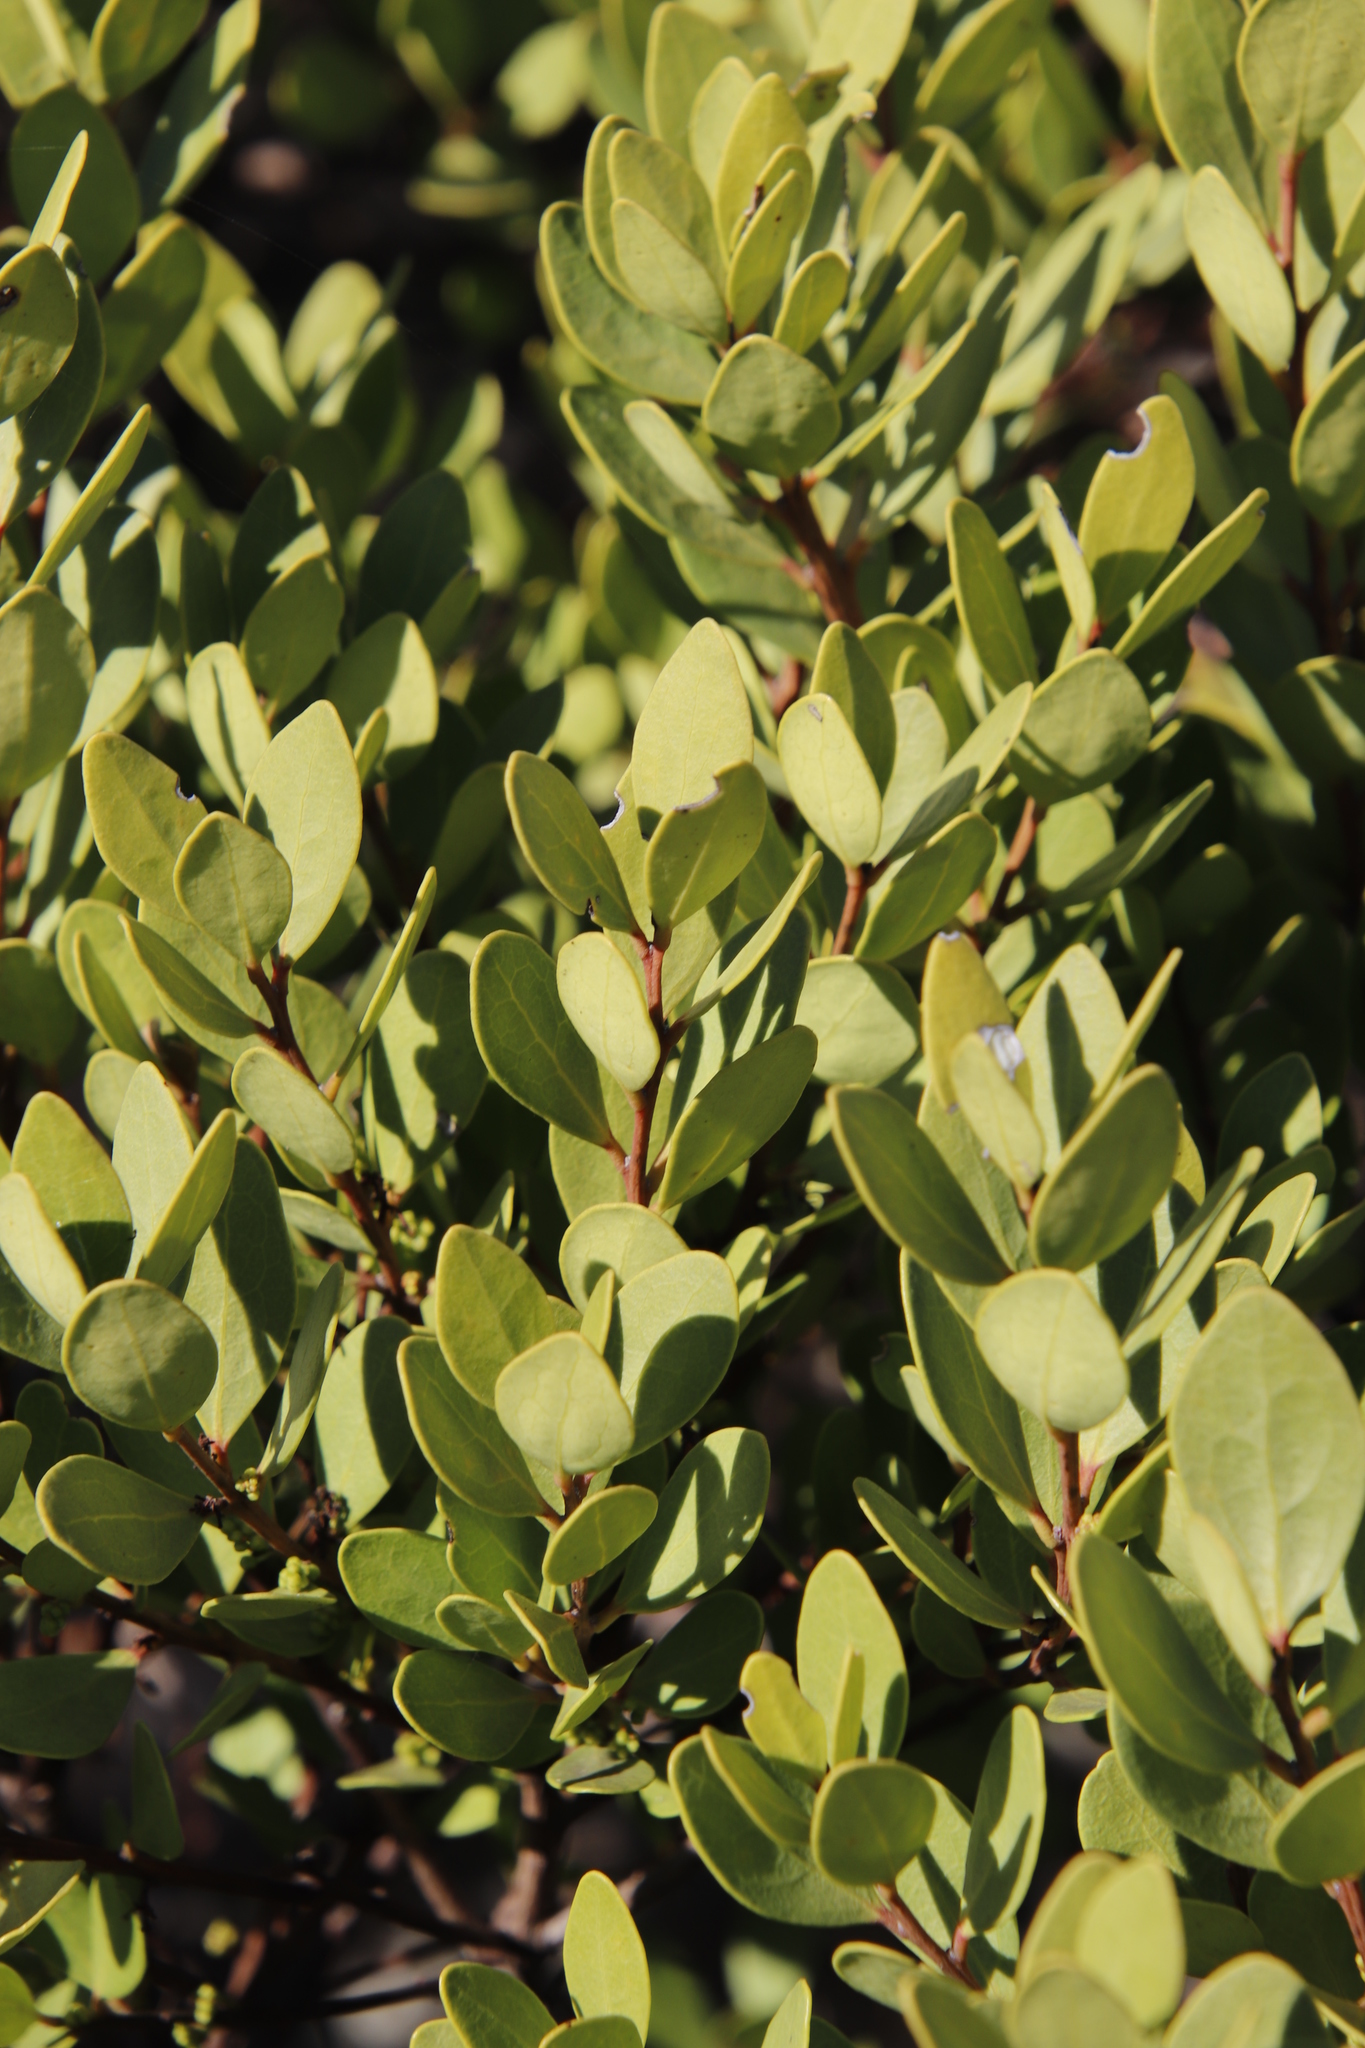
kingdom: Plantae
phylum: Tracheophyta
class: Magnoliopsida
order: Ericales
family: Ebenaceae
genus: Euclea
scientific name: Euclea racemosa
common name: Dune guarri
